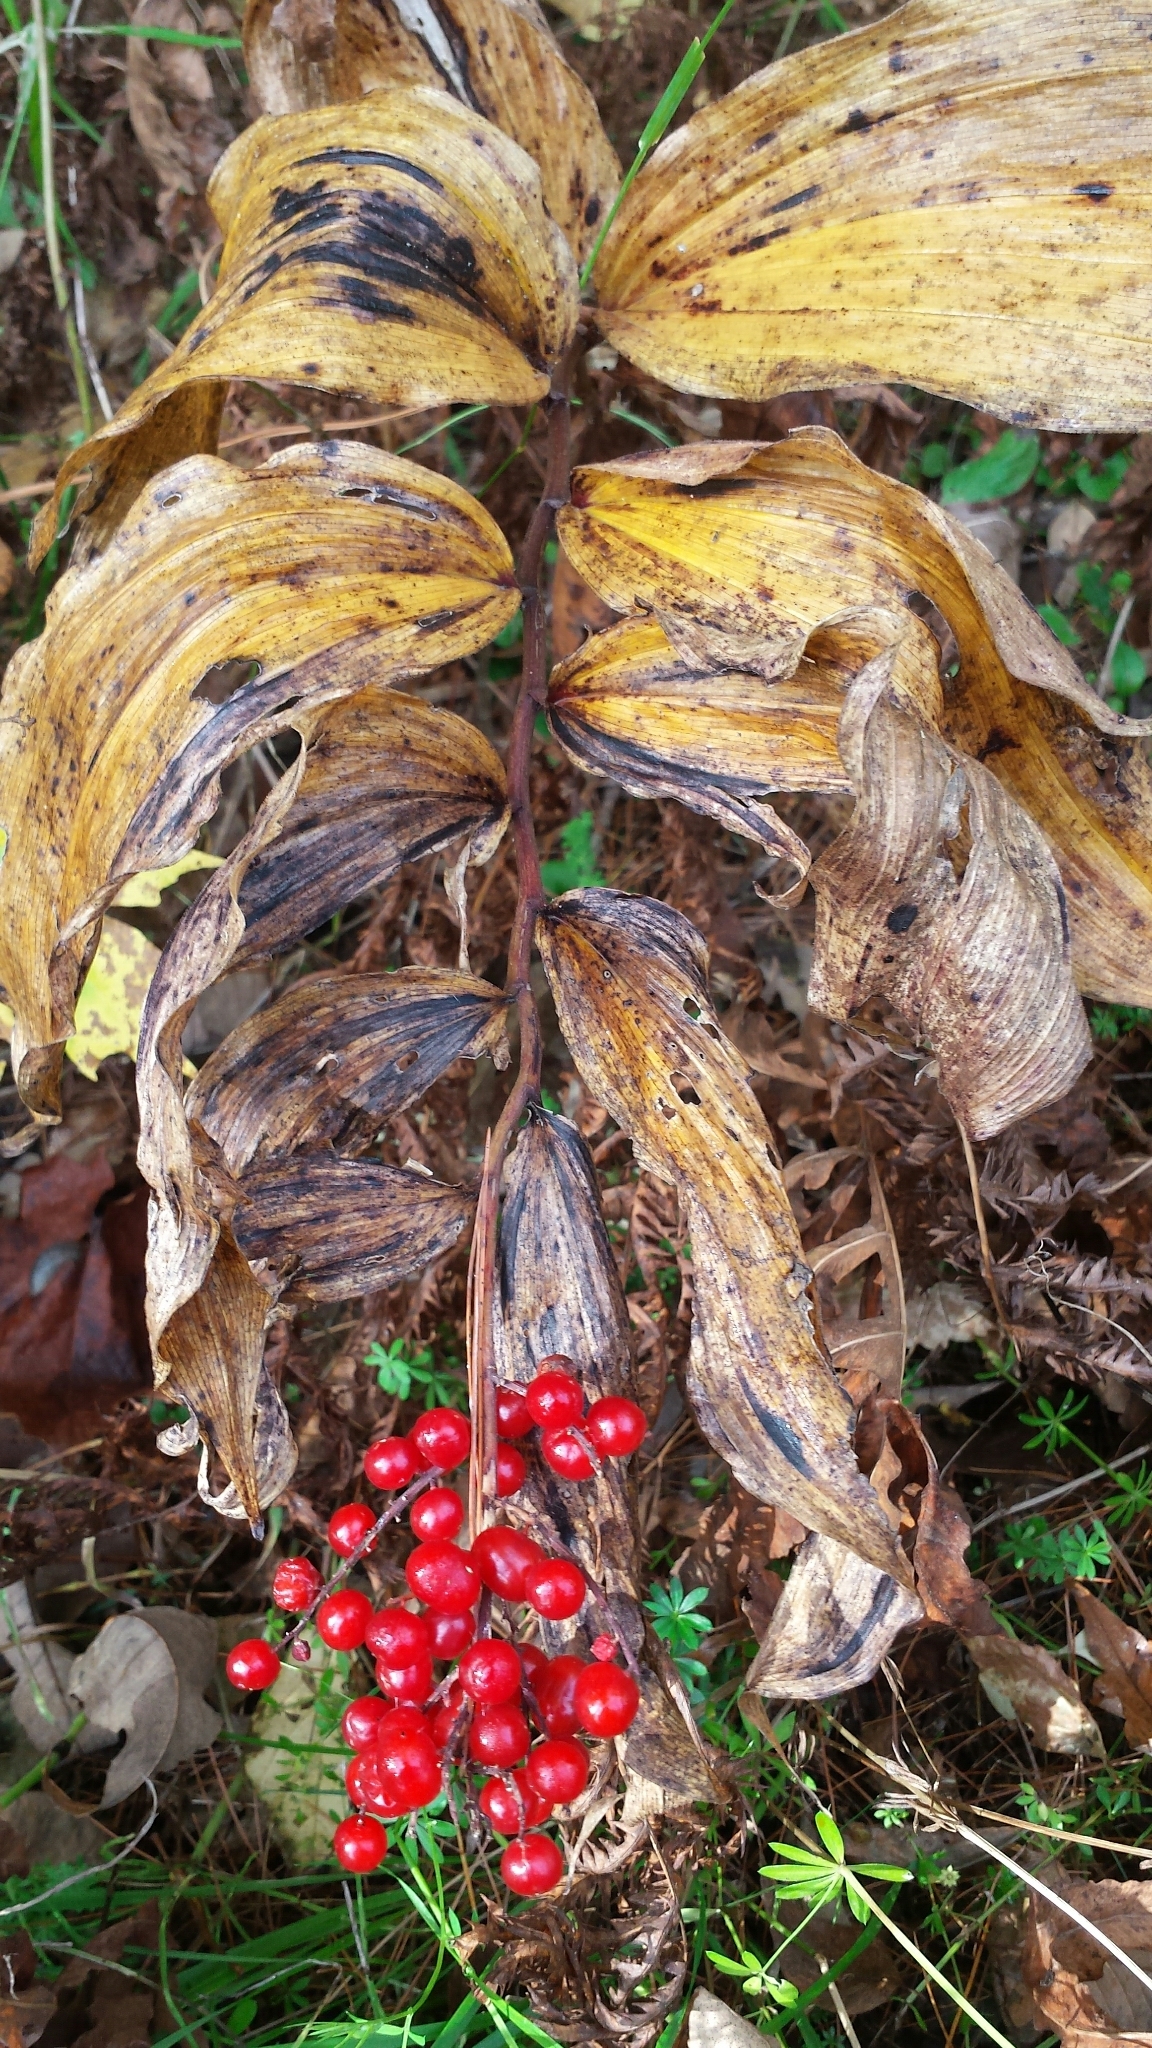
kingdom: Plantae
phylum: Tracheophyta
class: Liliopsida
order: Asparagales
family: Asparagaceae
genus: Maianthemum
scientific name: Maianthemum racemosum
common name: False spikenard
